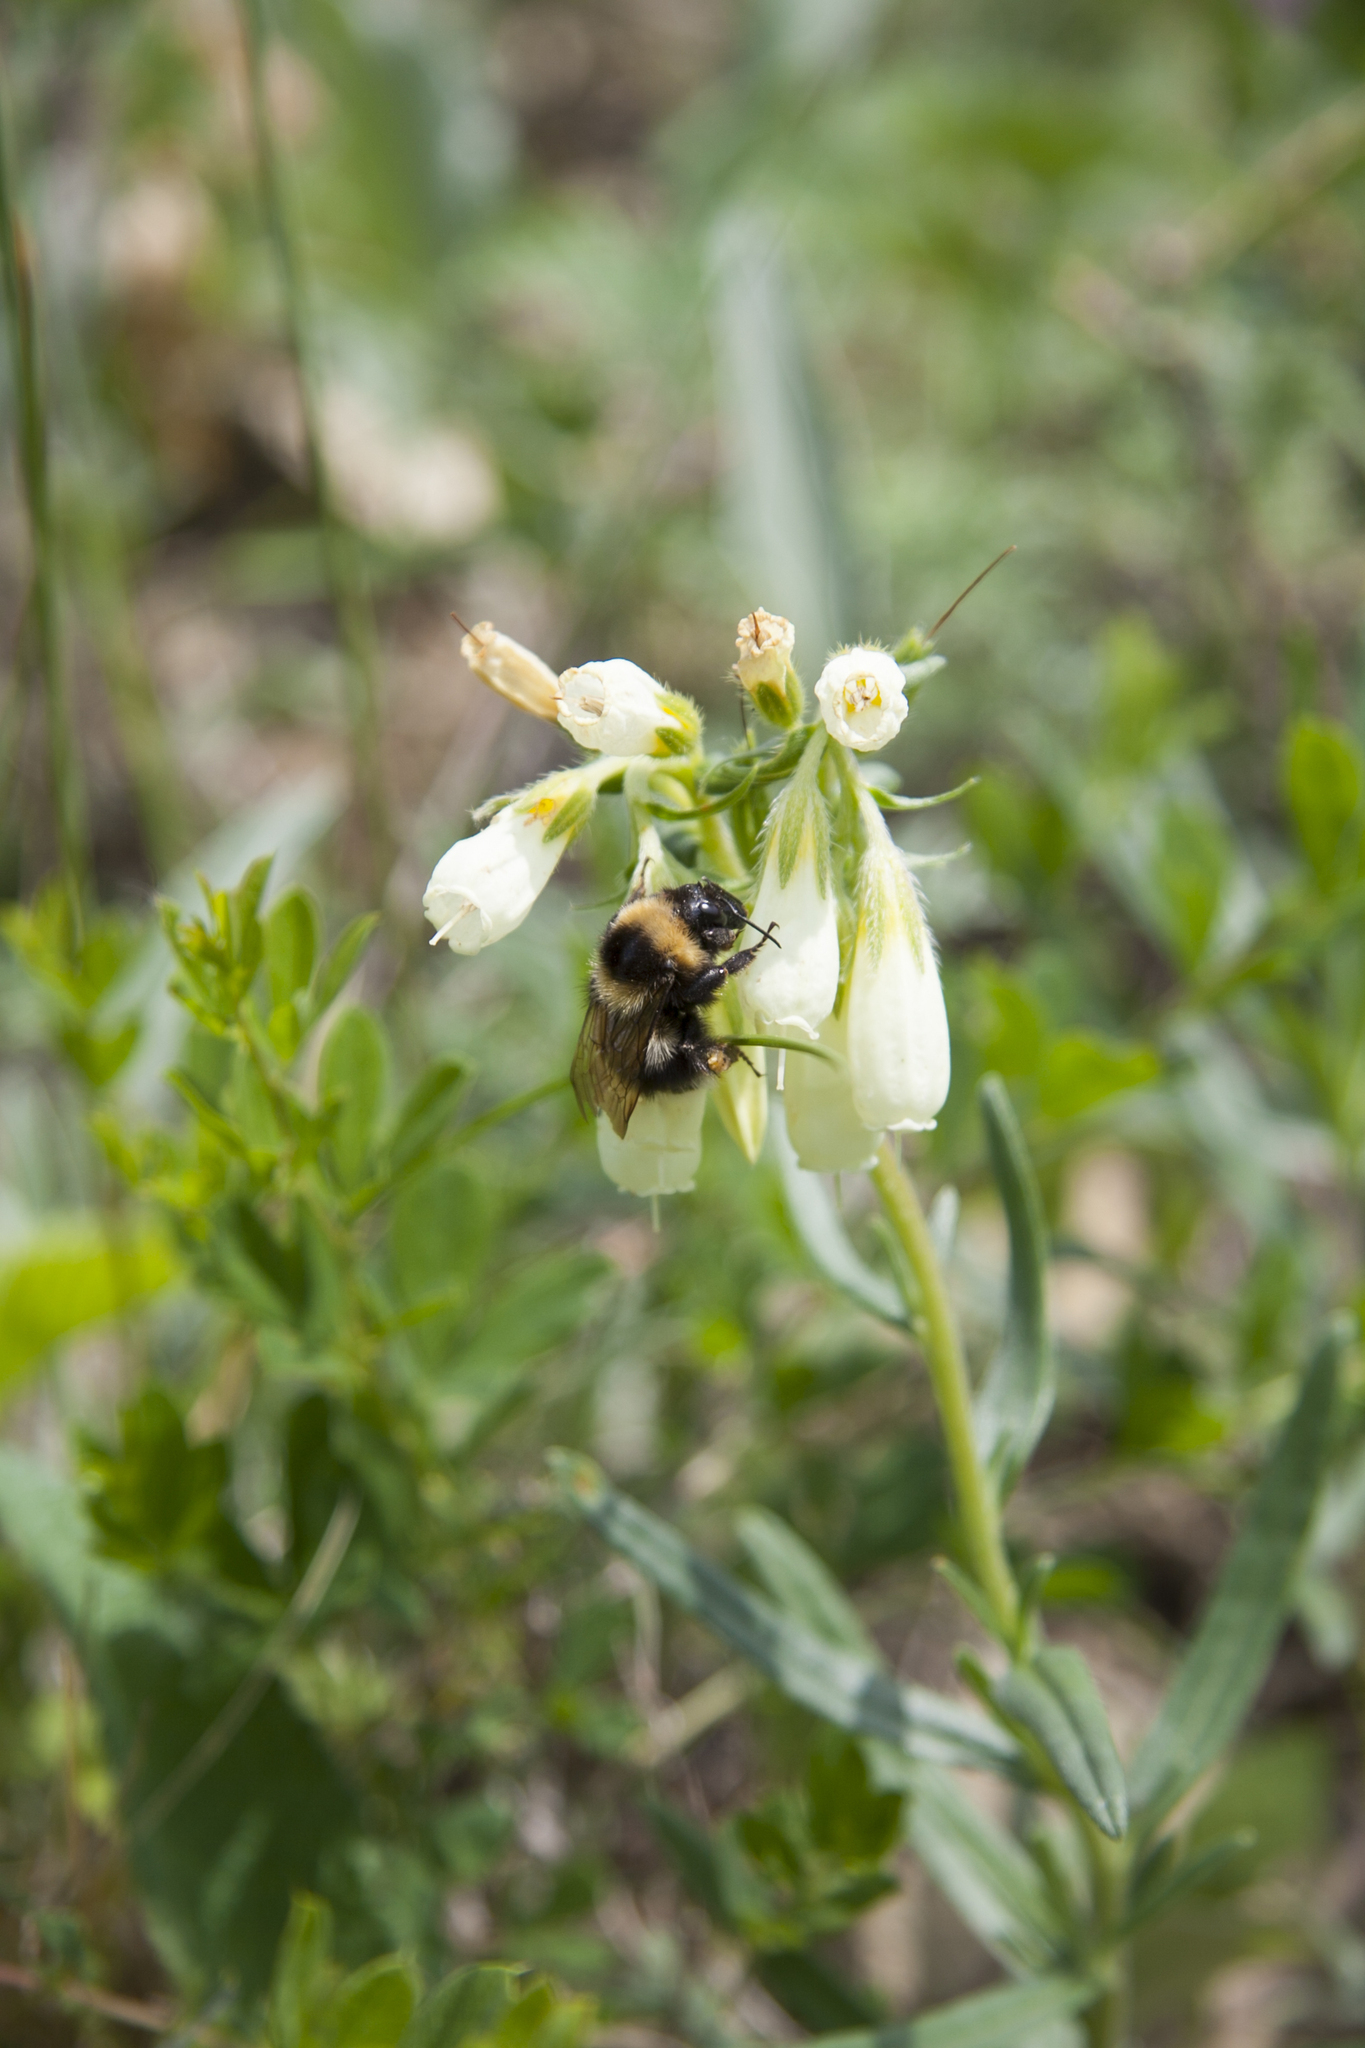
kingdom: Animalia
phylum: Arthropoda
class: Insecta
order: Hymenoptera
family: Apidae
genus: Bombus
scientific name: Bombus hortorum
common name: Garden bumblebee
